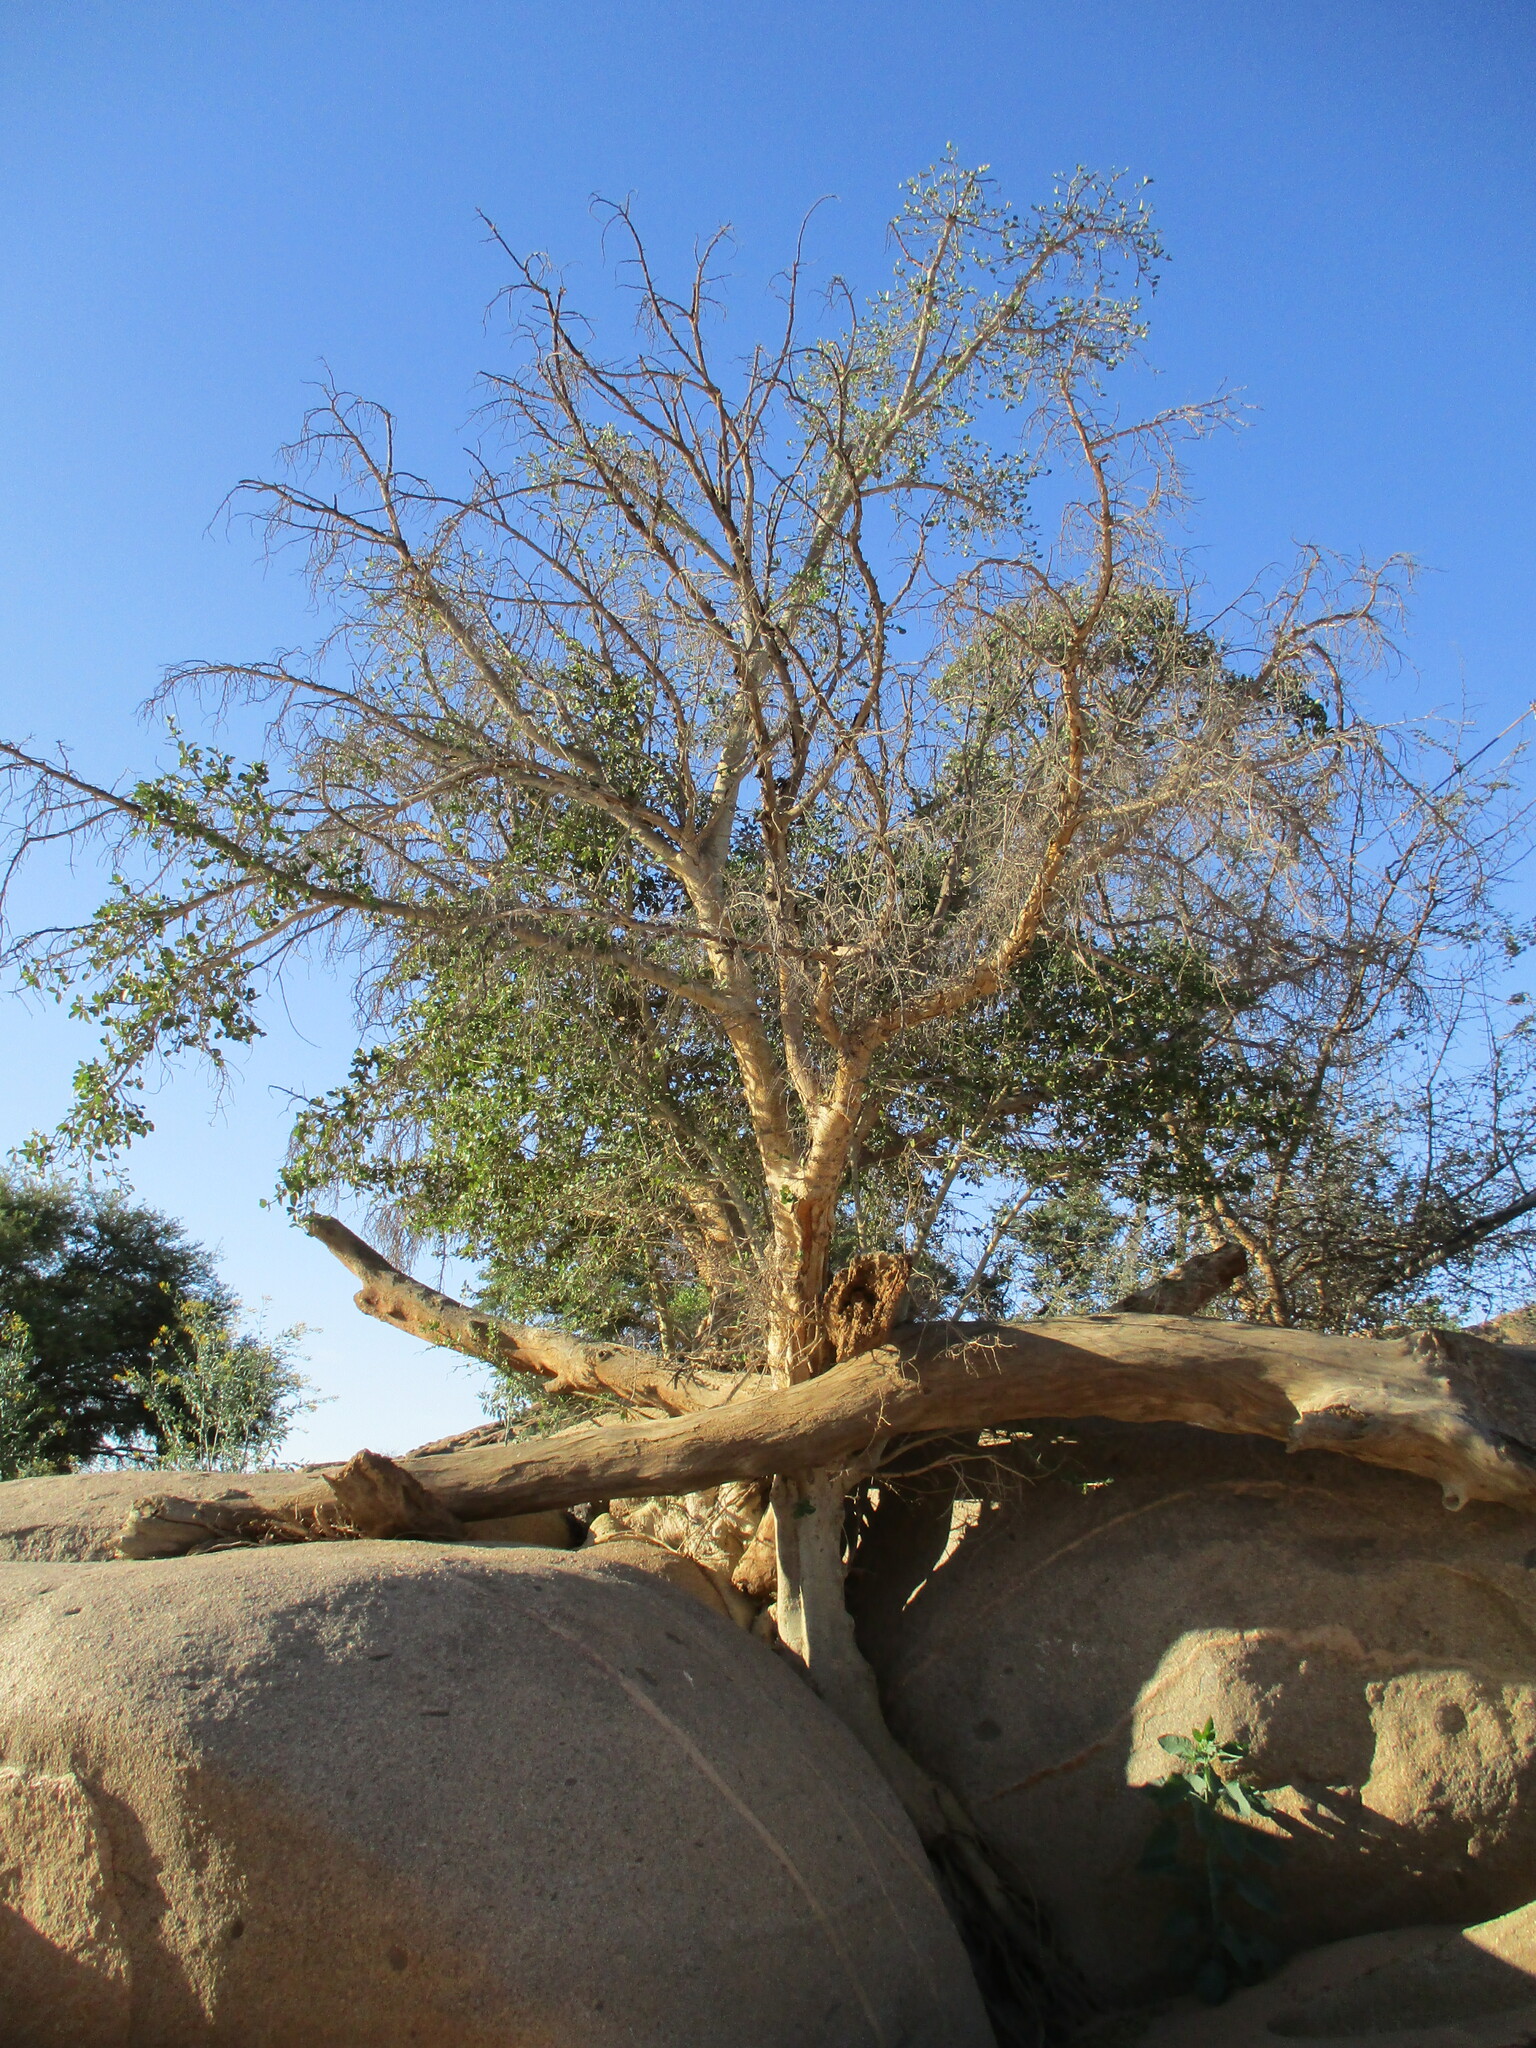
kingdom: Plantae
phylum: Tracheophyta
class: Magnoliopsida
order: Rosales
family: Moraceae
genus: Ficus
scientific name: Ficus sycomorus
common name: Sycomore
